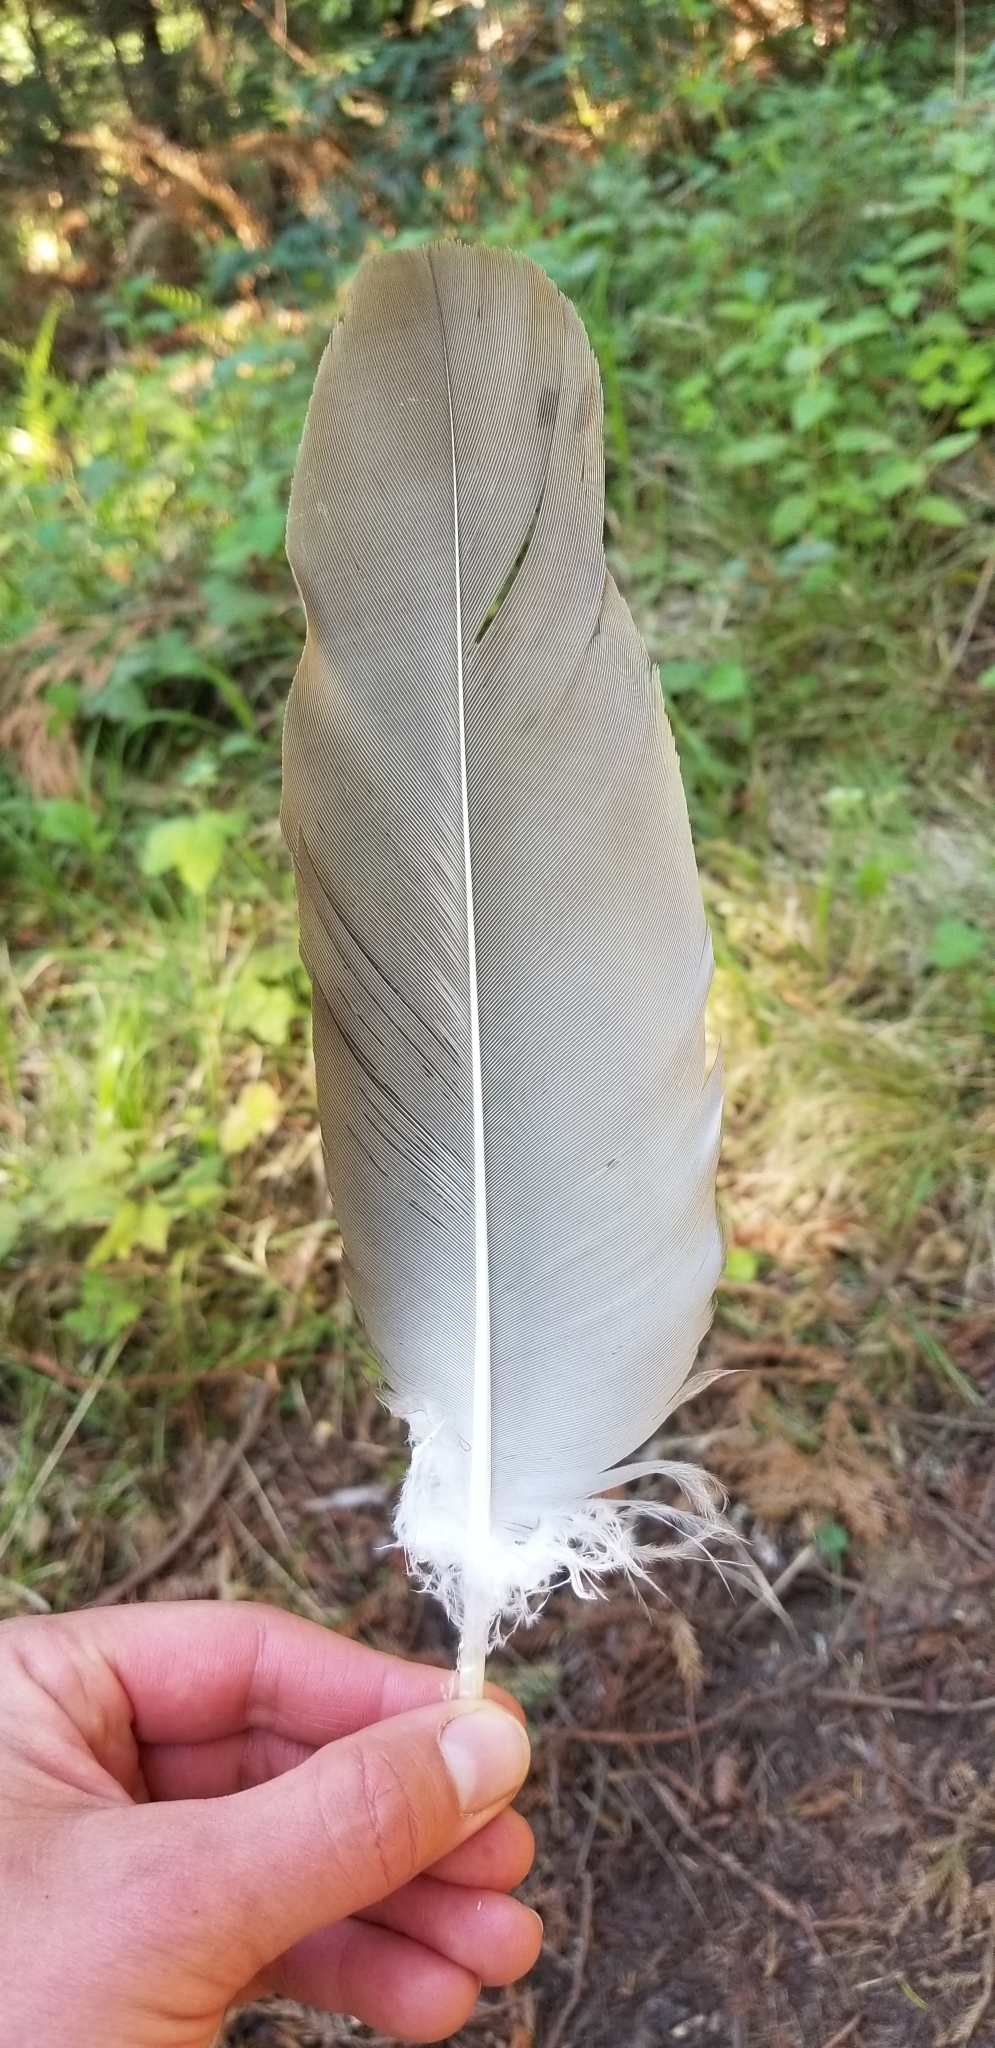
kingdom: Animalia
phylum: Chordata
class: Aves
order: Accipitriformes
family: Cathartidae
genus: Cathartes
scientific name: Cathartes aura
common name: Turkey vulture
